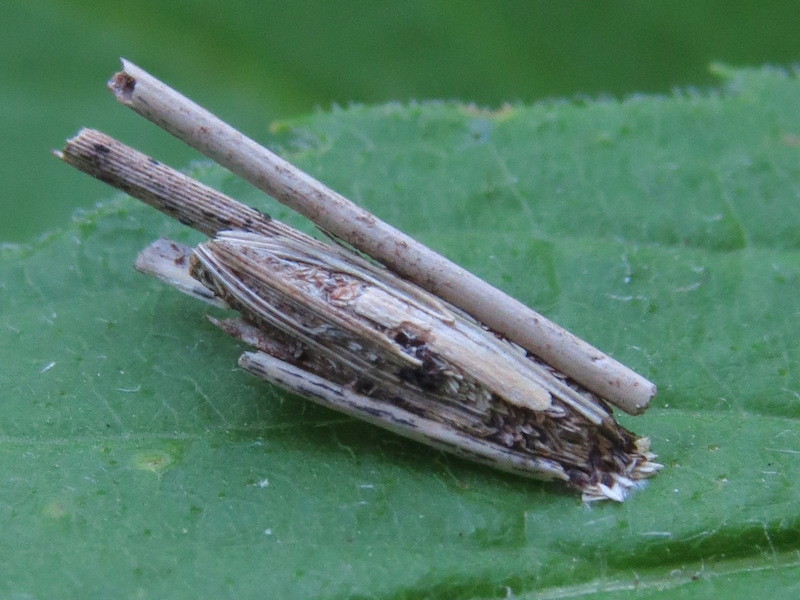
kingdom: Animalia
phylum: Arthropoda
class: Insecta
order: Lepidoptera
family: Psychidae
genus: Psyche
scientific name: Psyche casta
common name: Common sweep
